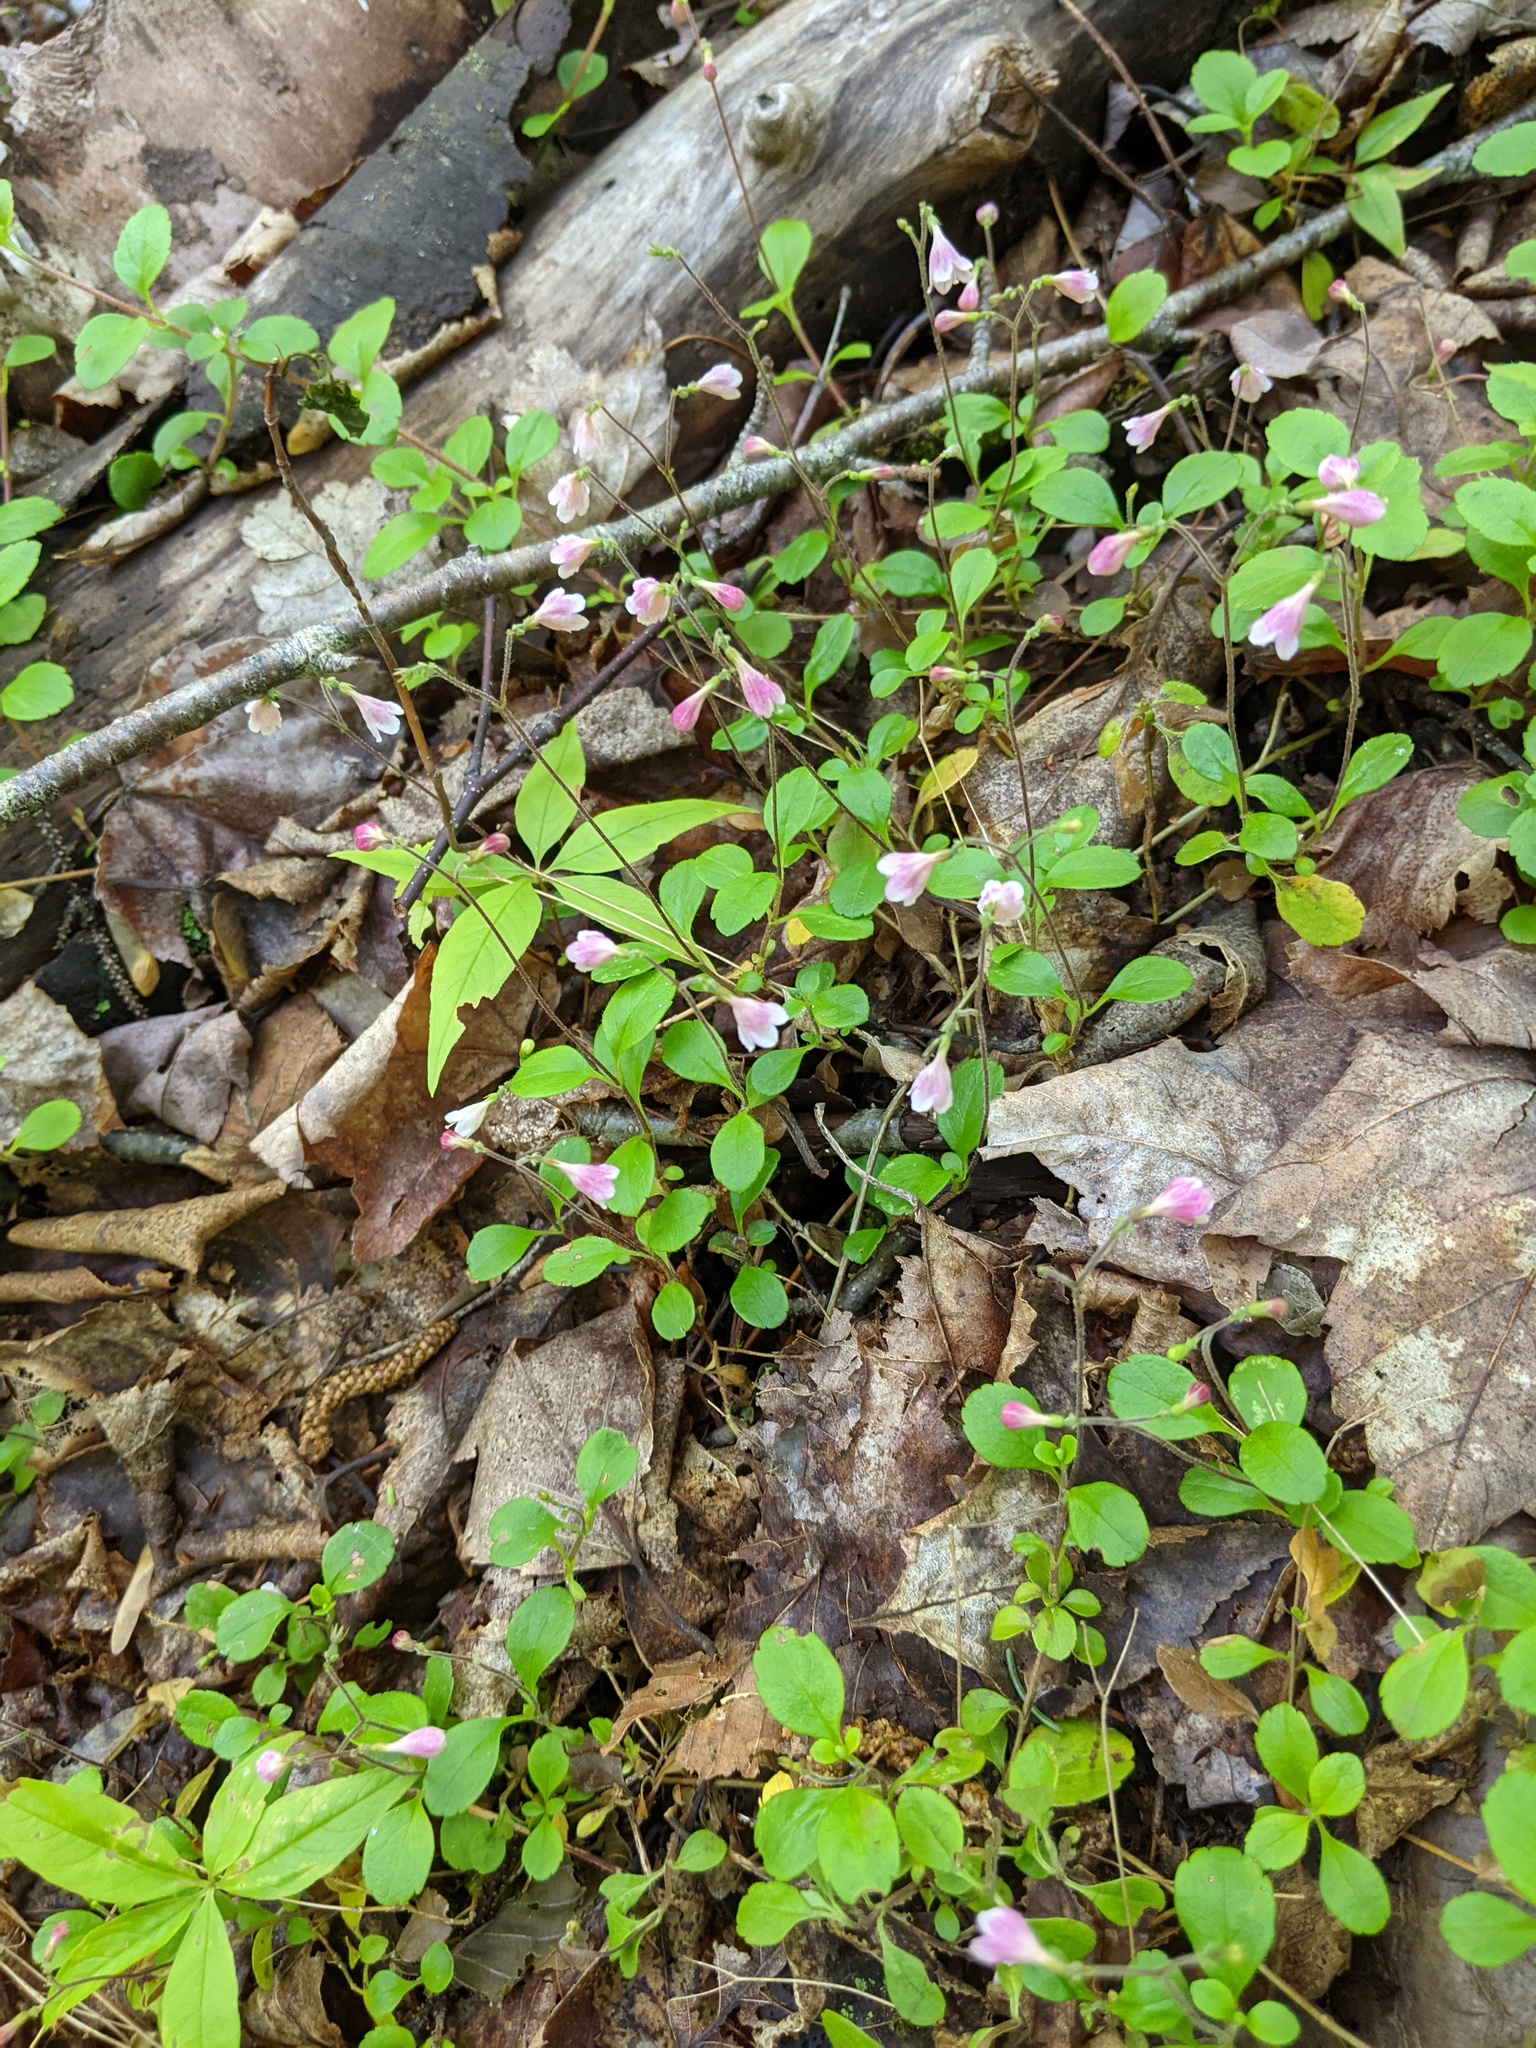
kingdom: Plantae
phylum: Tracheophyta
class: Magnoliopsida
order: Dipsacales
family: Caprifoliaceae
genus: Linnaea
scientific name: Linnaea borealis
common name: Twinflower
